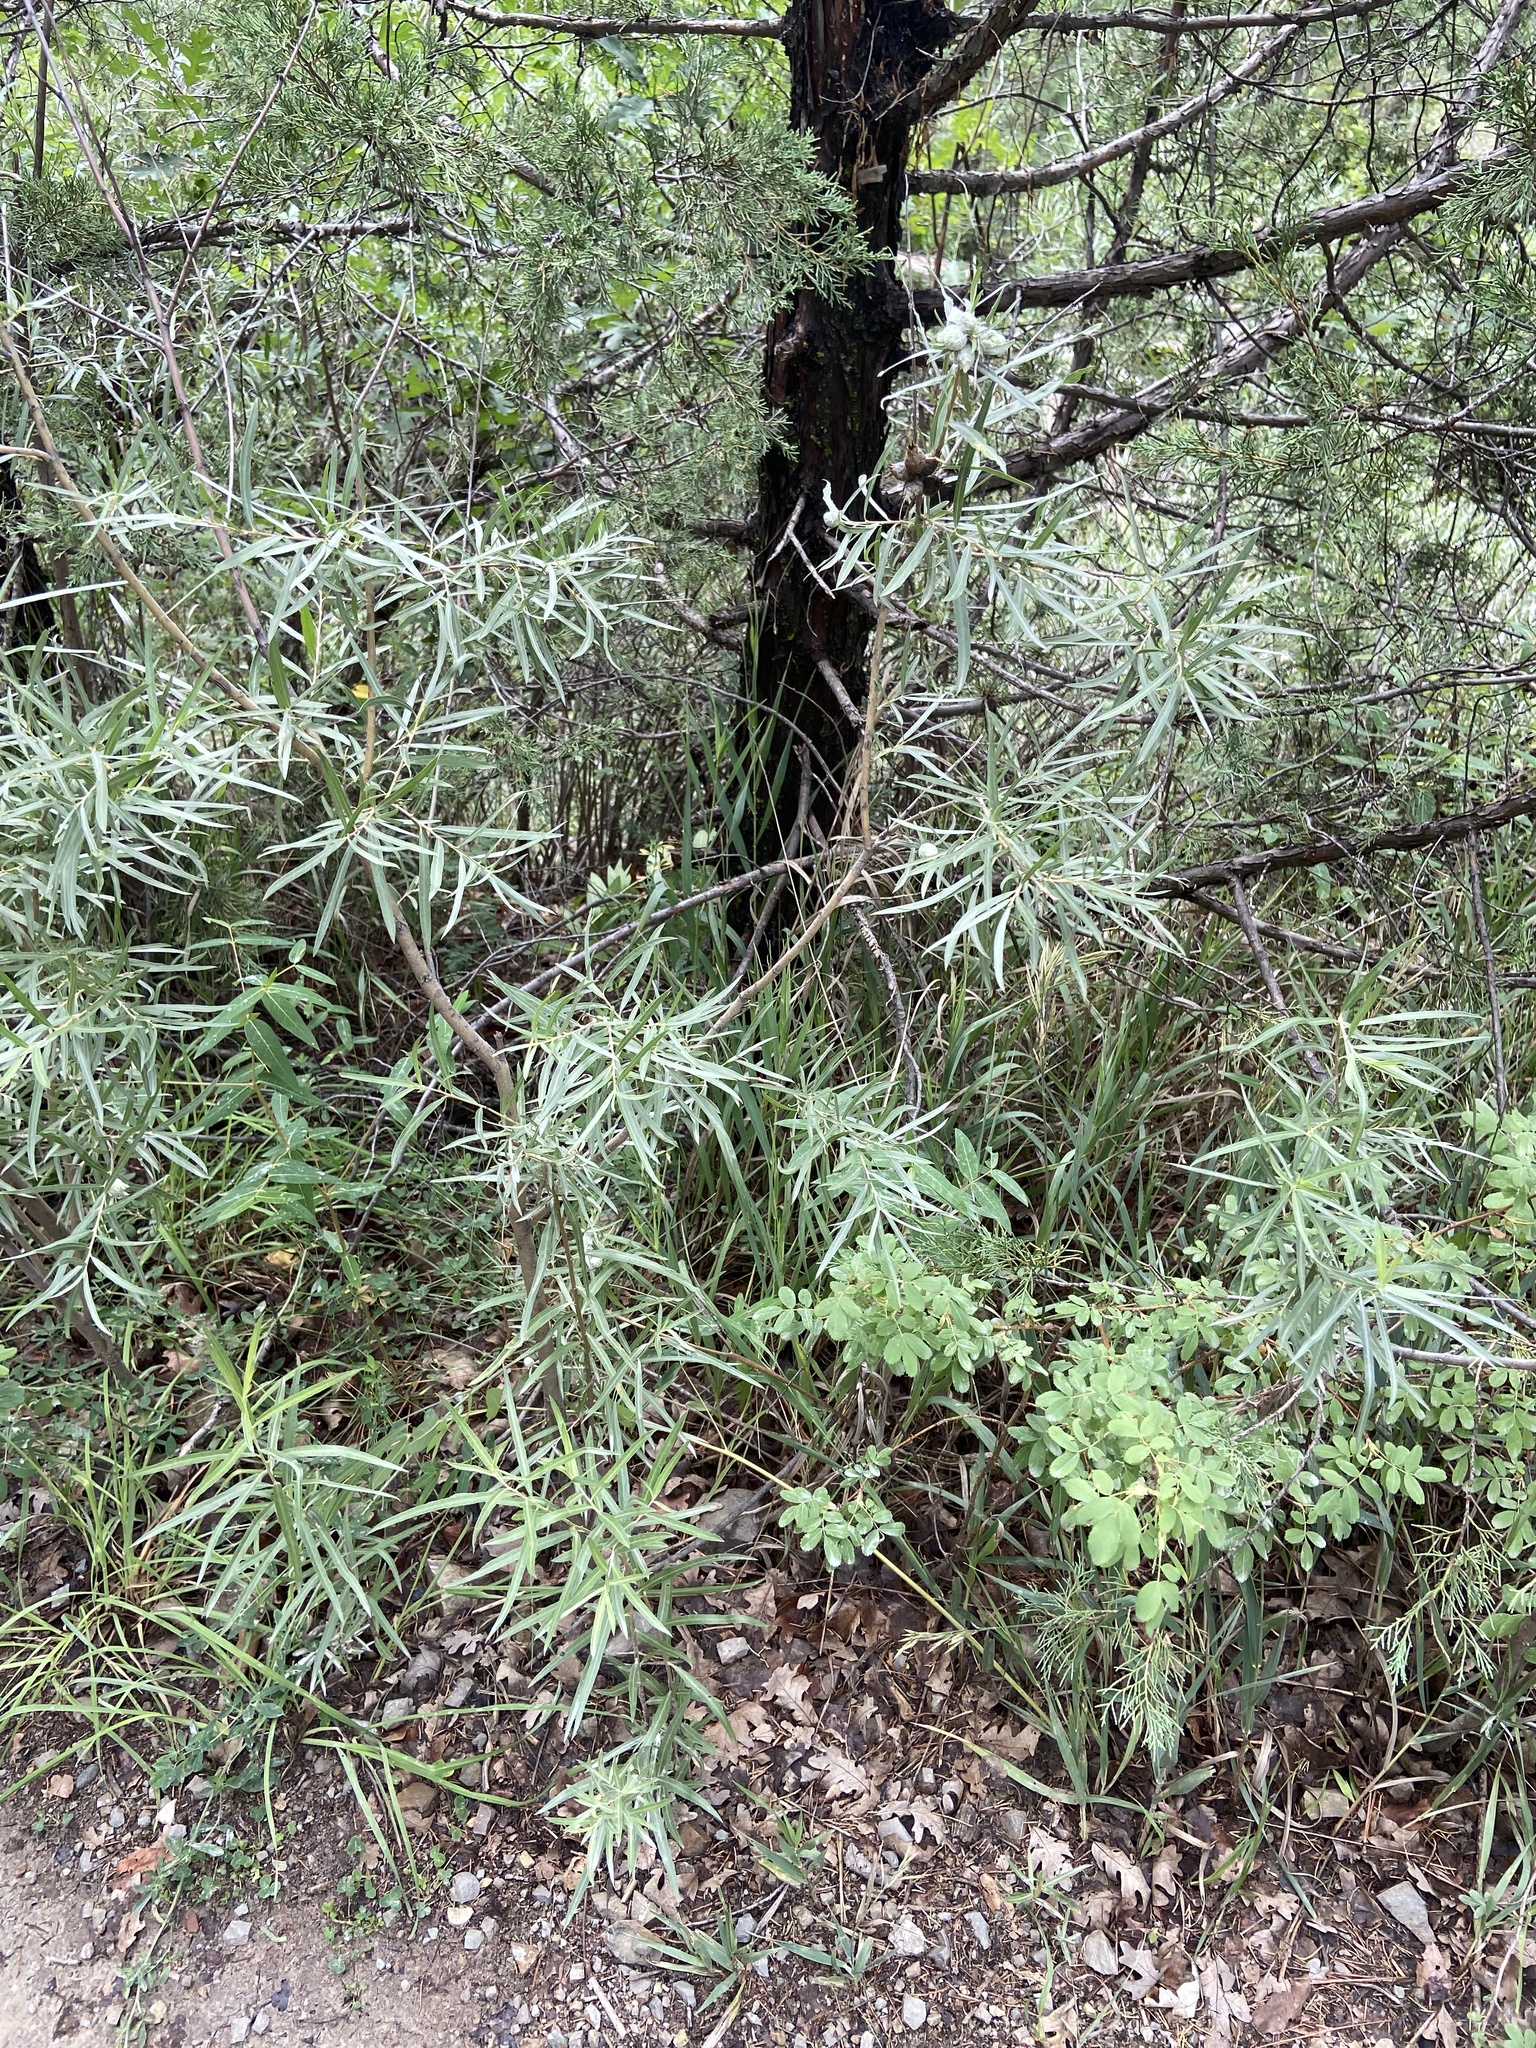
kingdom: Animalia
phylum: Arthropoda
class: Insecta
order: Diptera
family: Cecidomyiidae
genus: Rabdophaga
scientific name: Rabdophaga strobiloides
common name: Willow pinecone gall midge
